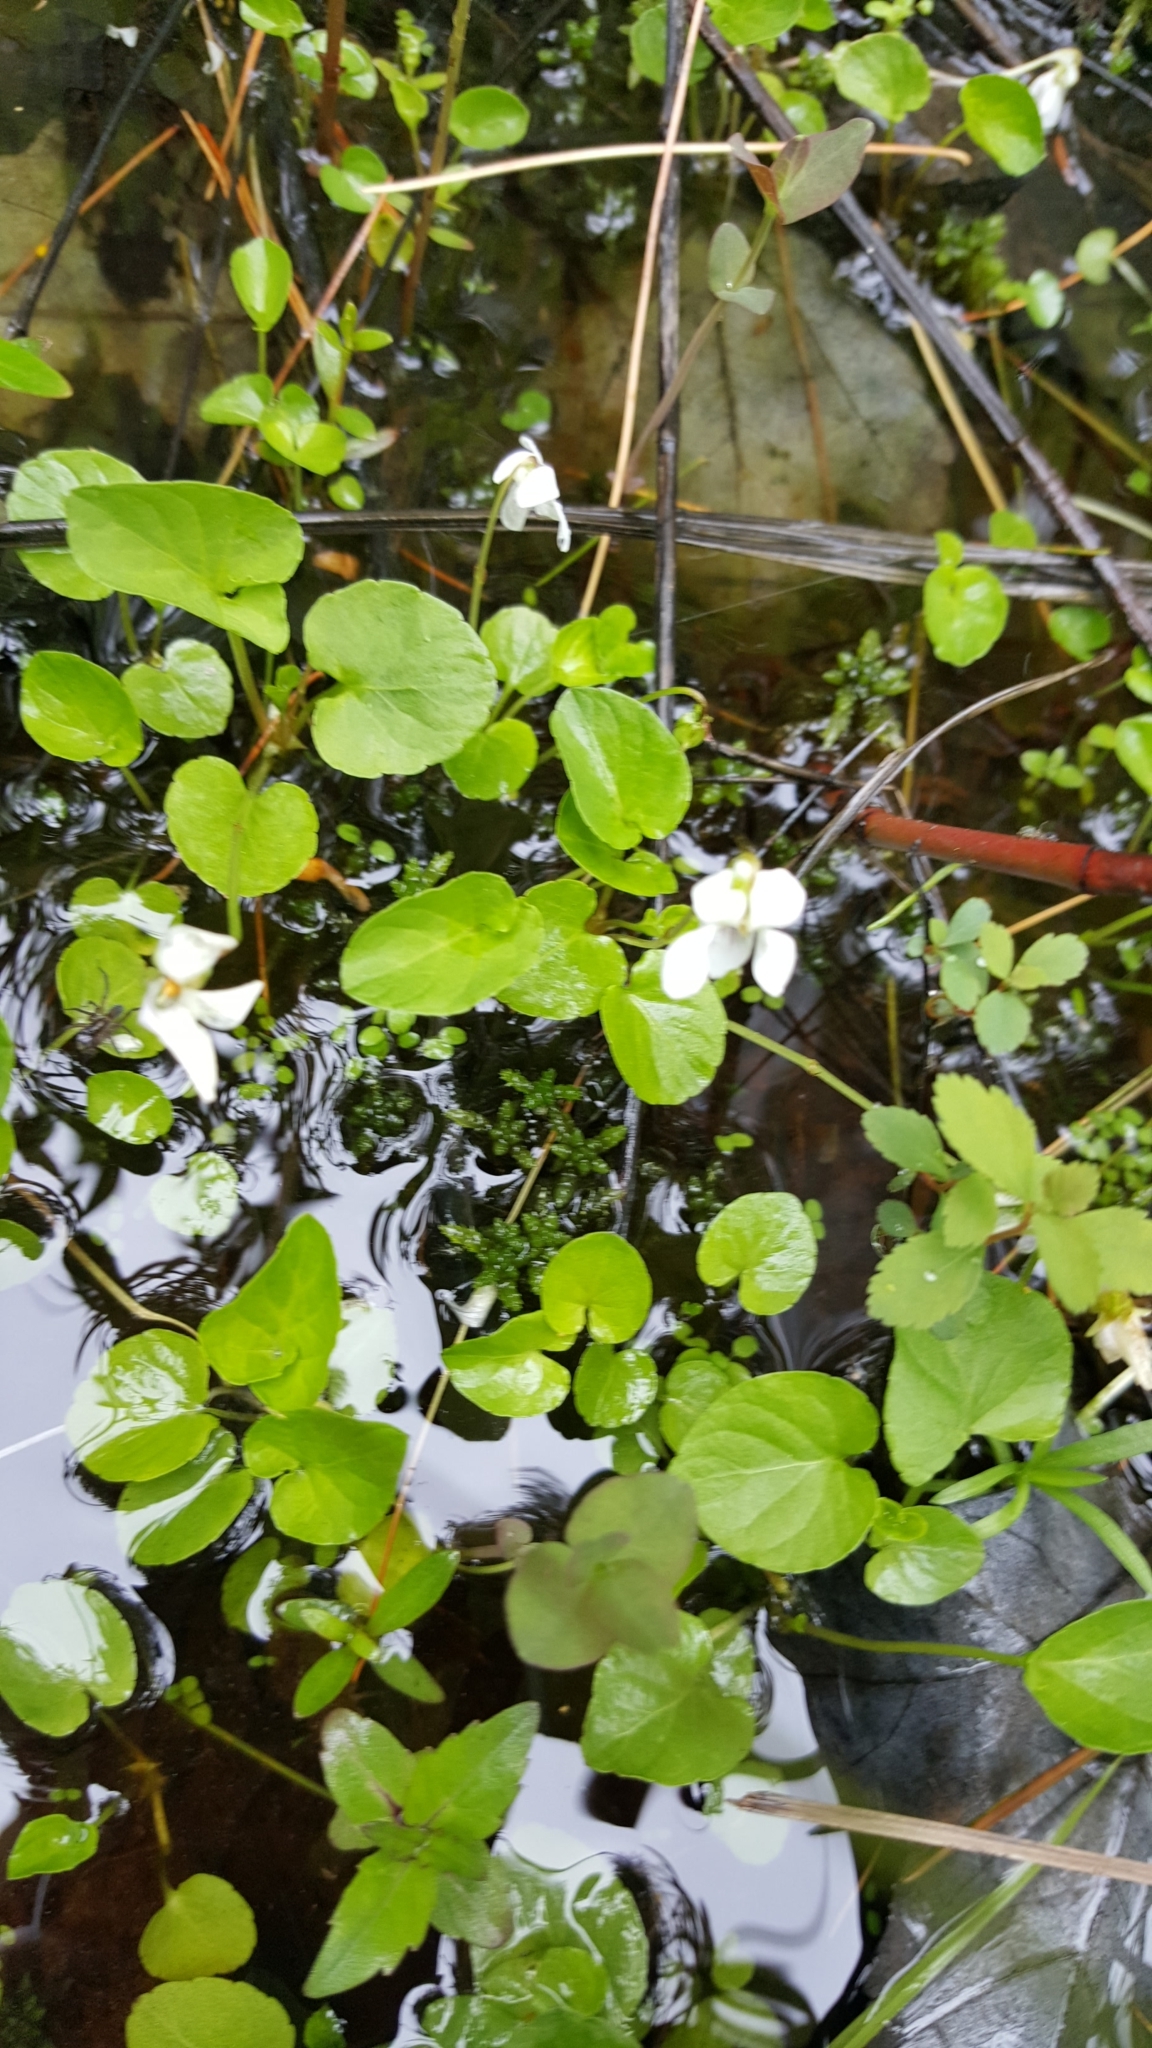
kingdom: Plantae
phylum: Tracheophyta
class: Magnoliopsida
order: Malpighiales
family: Violaceae
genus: Viola
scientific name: Viola minuscula
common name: Northern white violet
